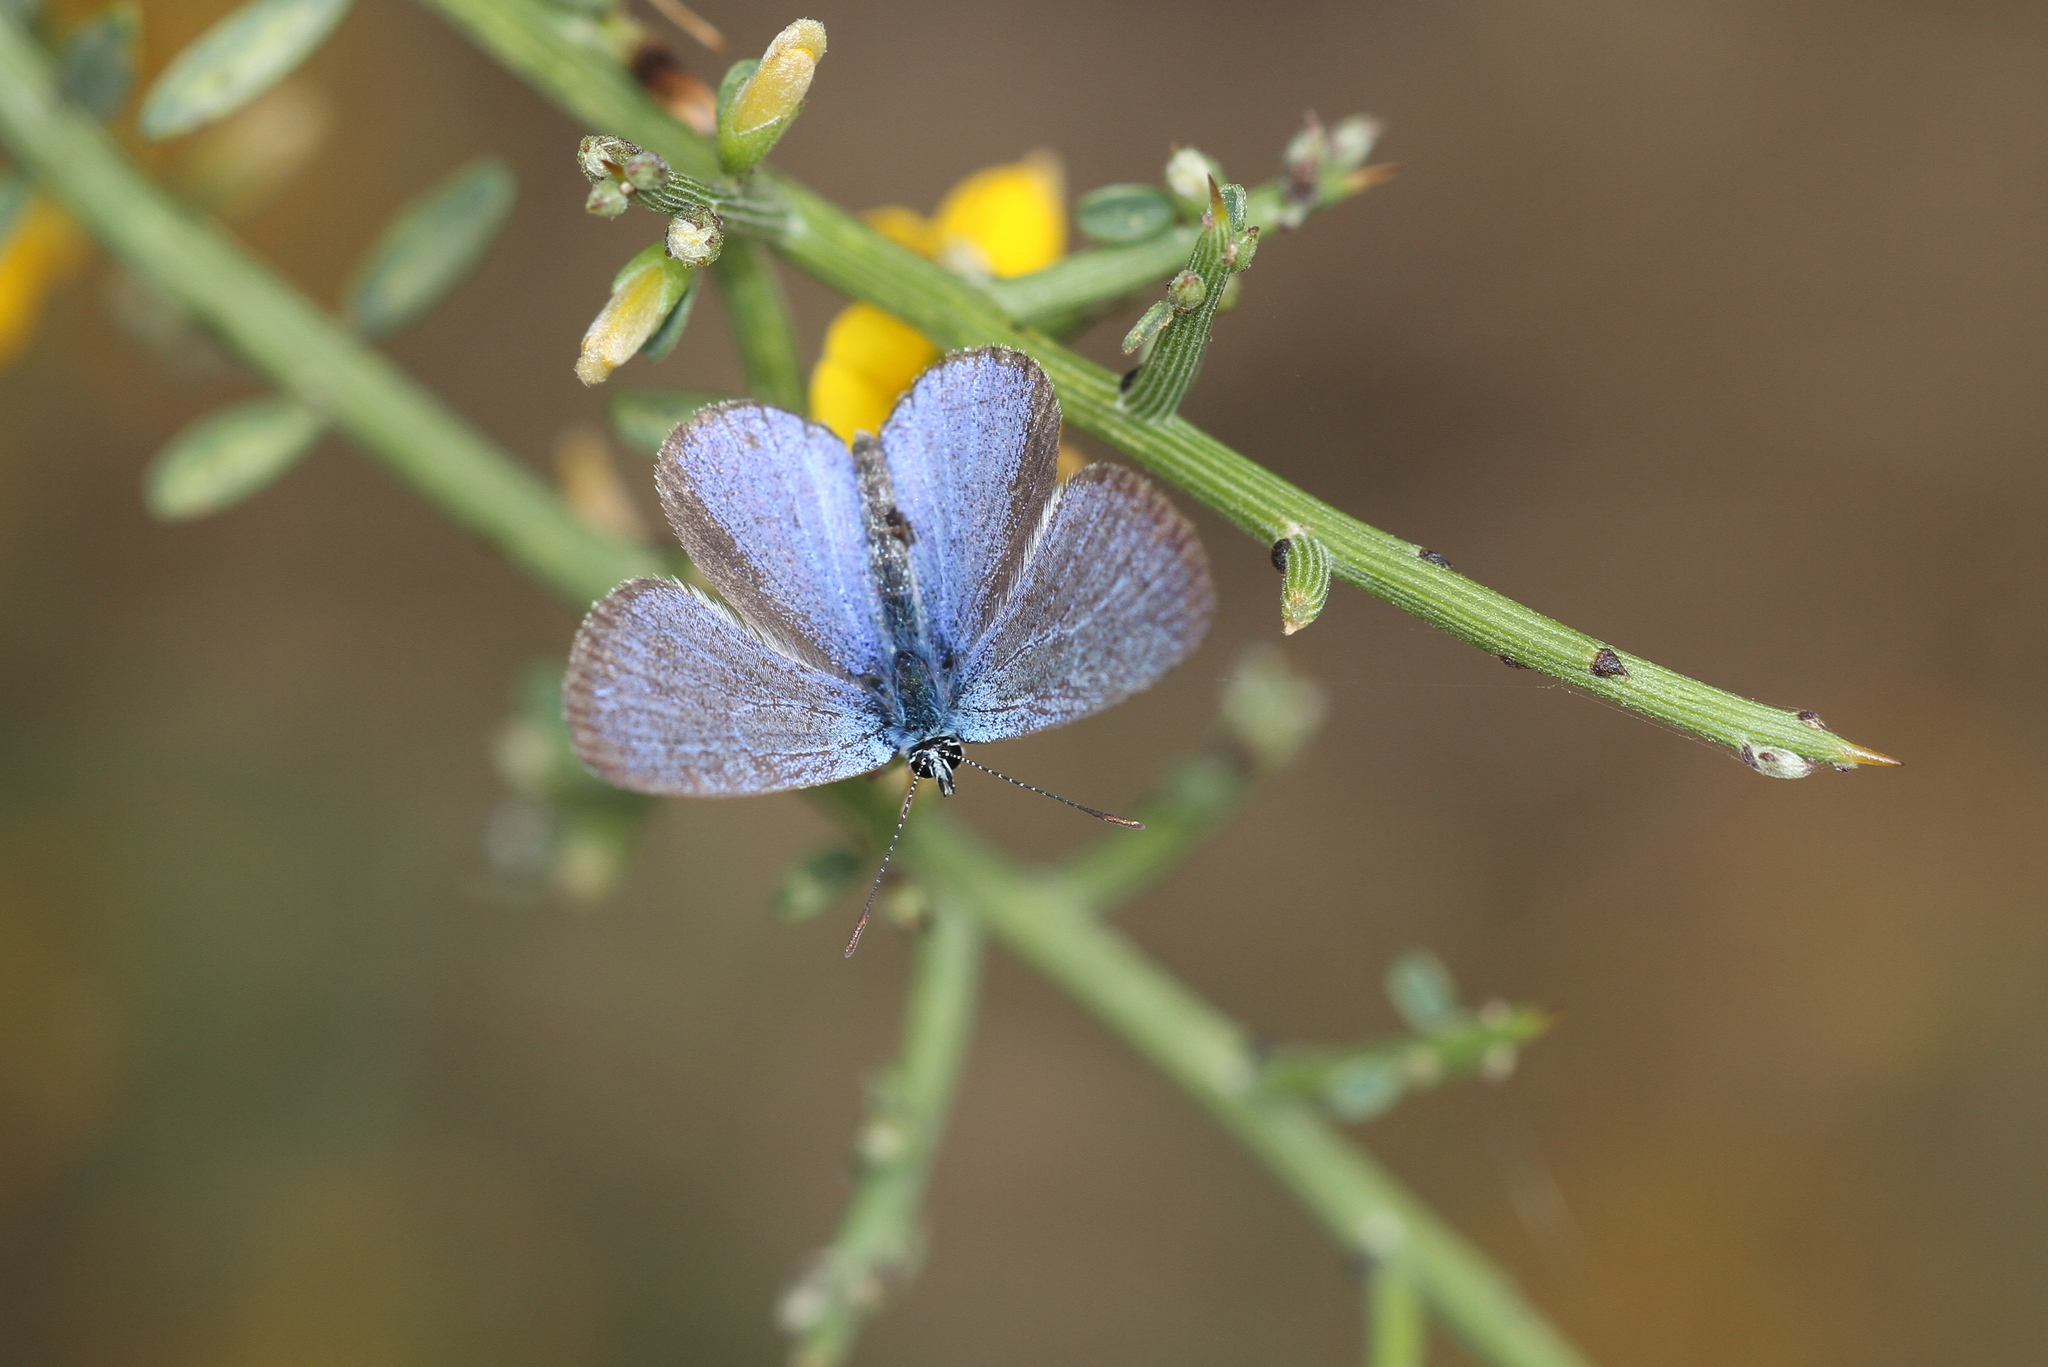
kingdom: Animalia
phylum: Arthropoda
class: Insecta
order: Lepidoptera
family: Lycaenidae
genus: Glaucopsyche
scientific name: Glaucopsyche paphos
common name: Paphos blue
